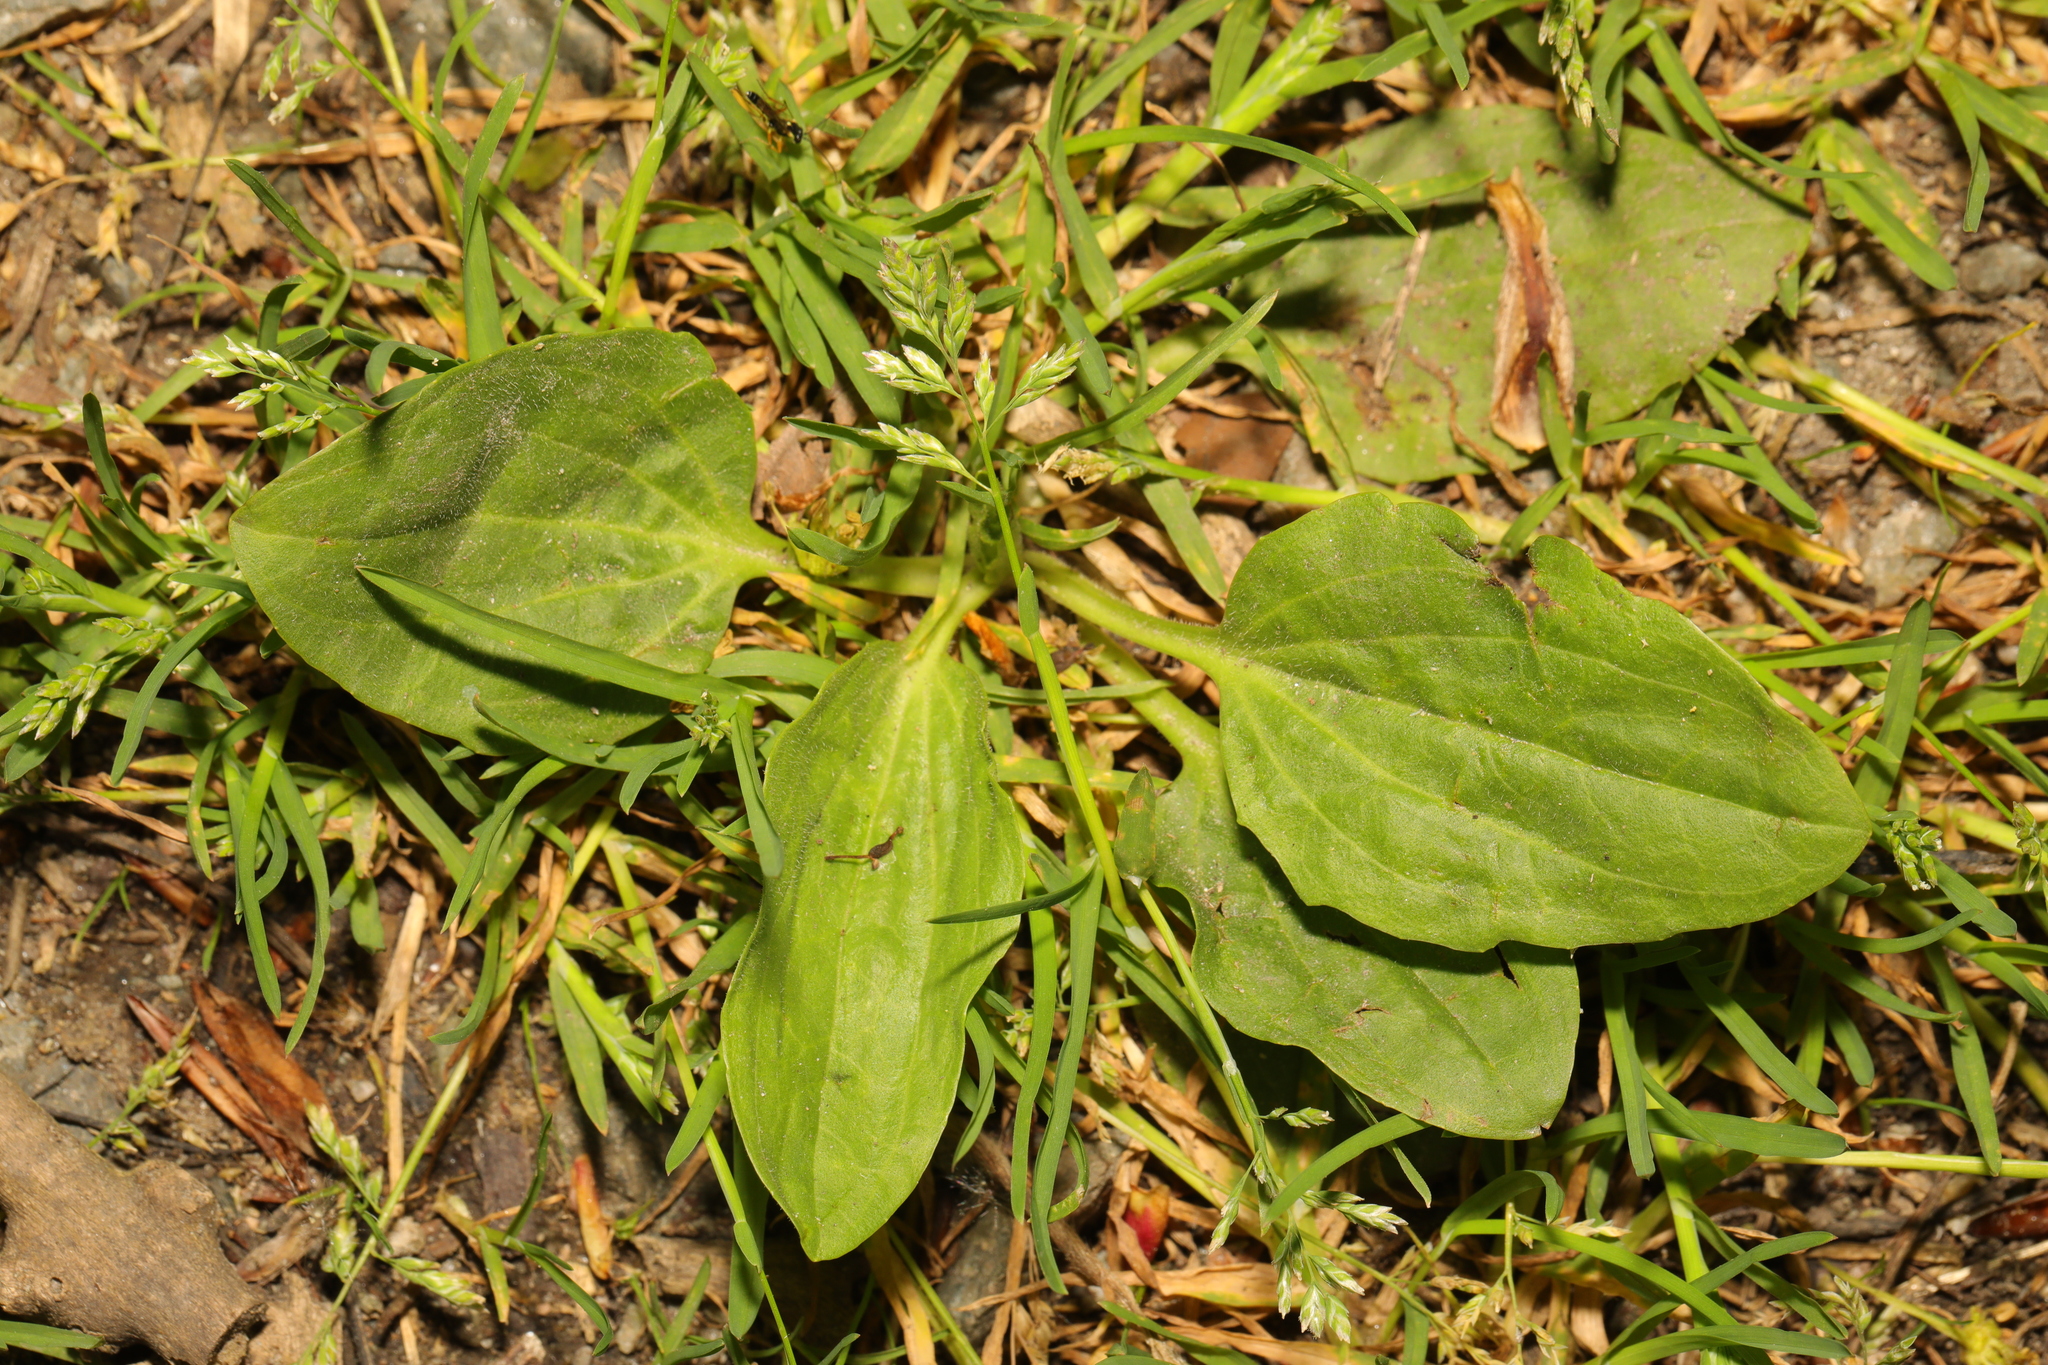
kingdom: Plantae
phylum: Tracheophyta
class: Magnoliopsida
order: Lamiales
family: Plantaginaceae
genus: Plantago
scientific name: Plantago major
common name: Common plantain
